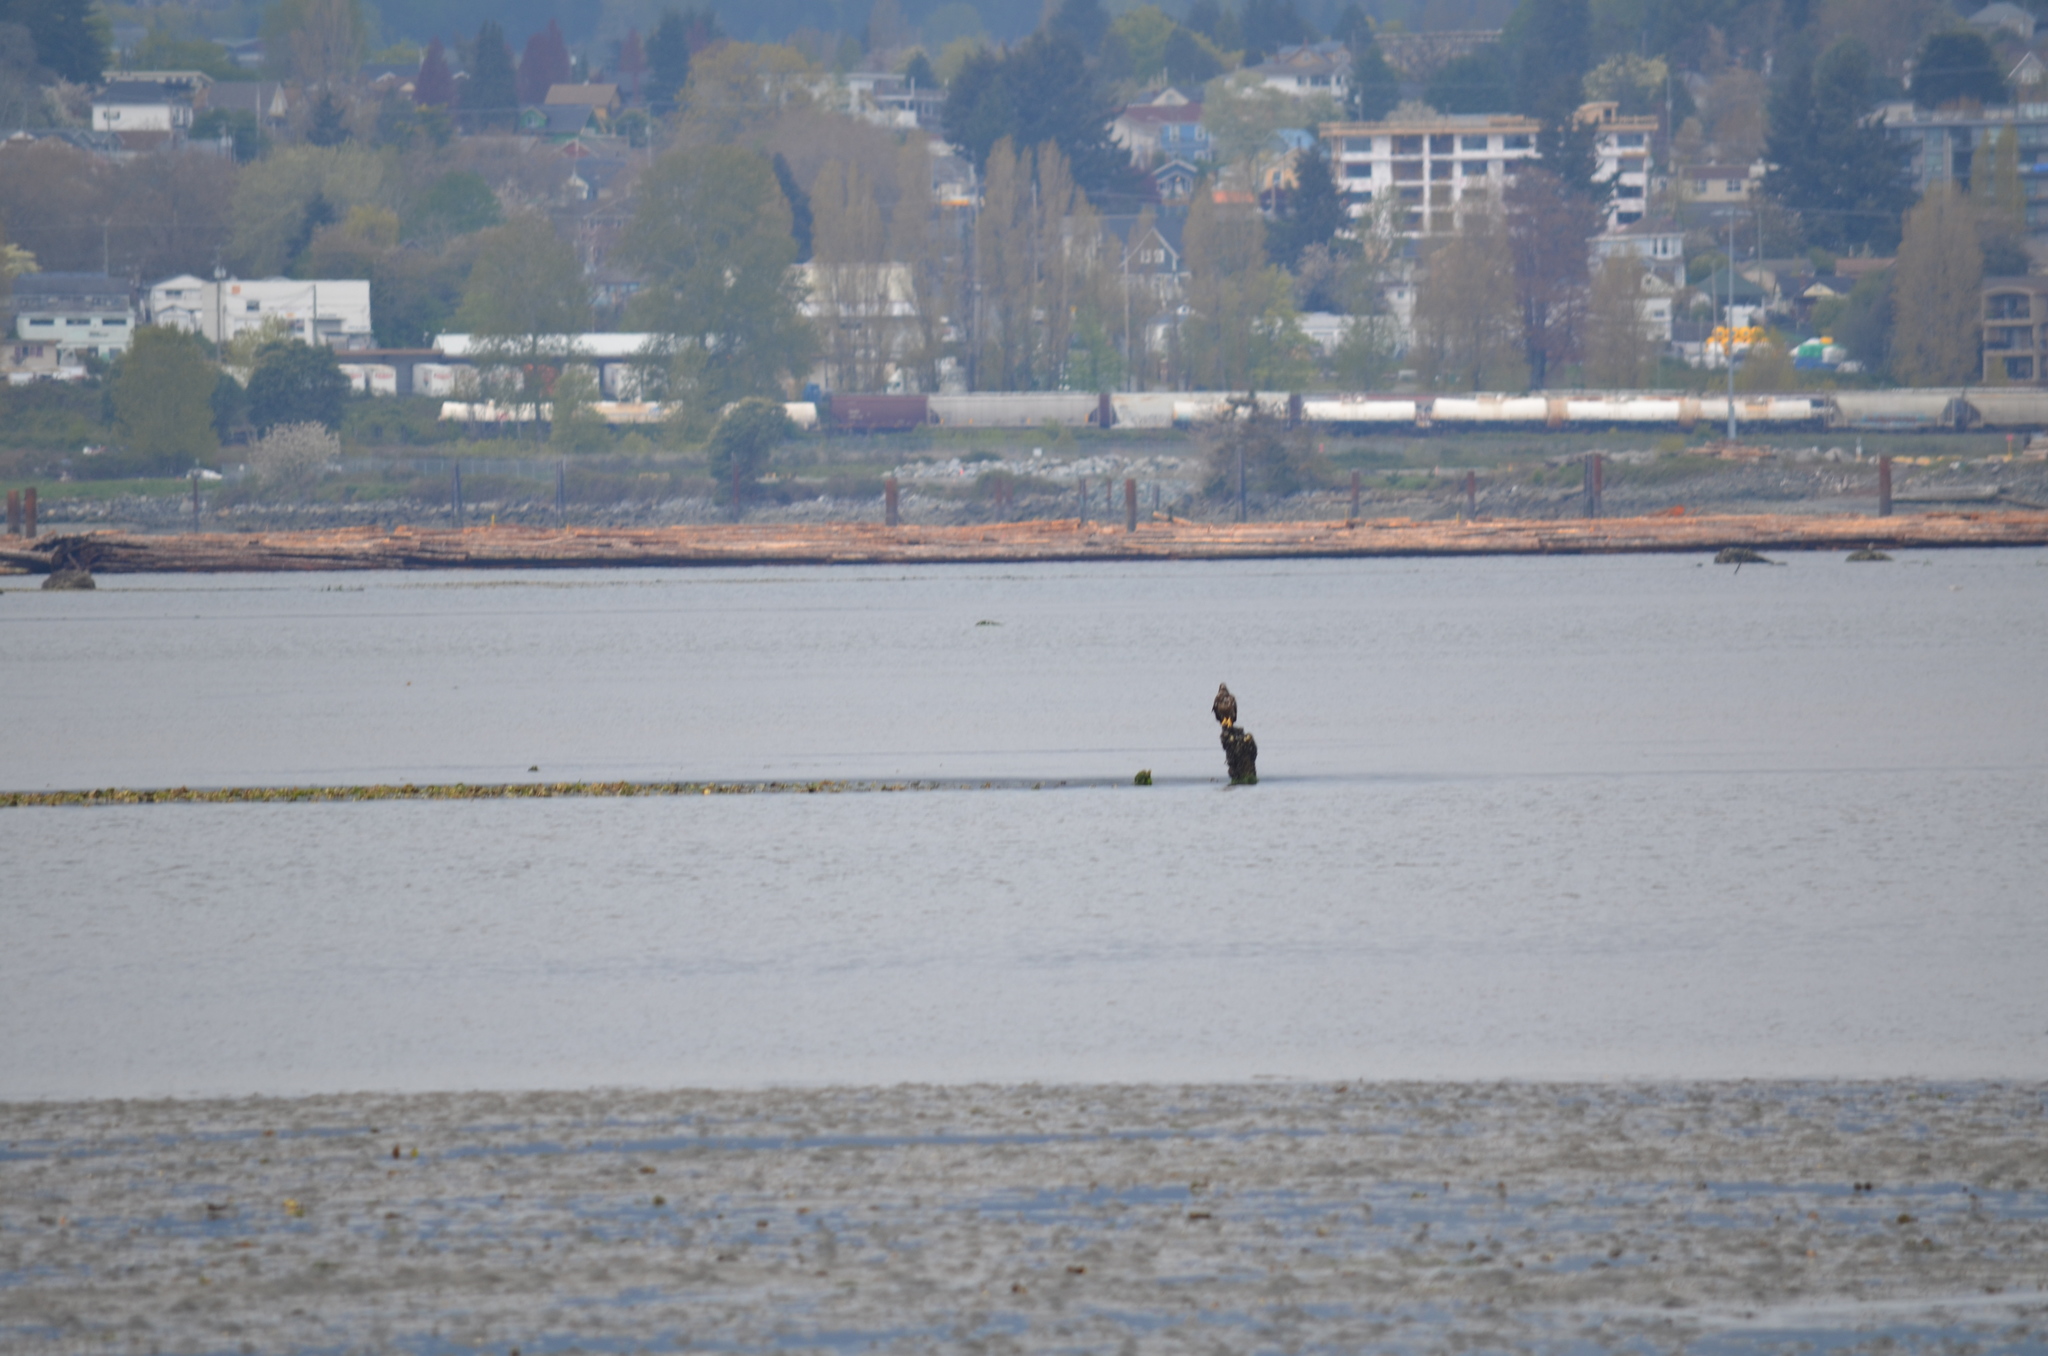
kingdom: Animalia
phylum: Chordata
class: Aves
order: Accipitriformes
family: Accipitridae
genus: Haliaeetus
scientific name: Haliaeetus leucocephalus
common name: Bald eagle
